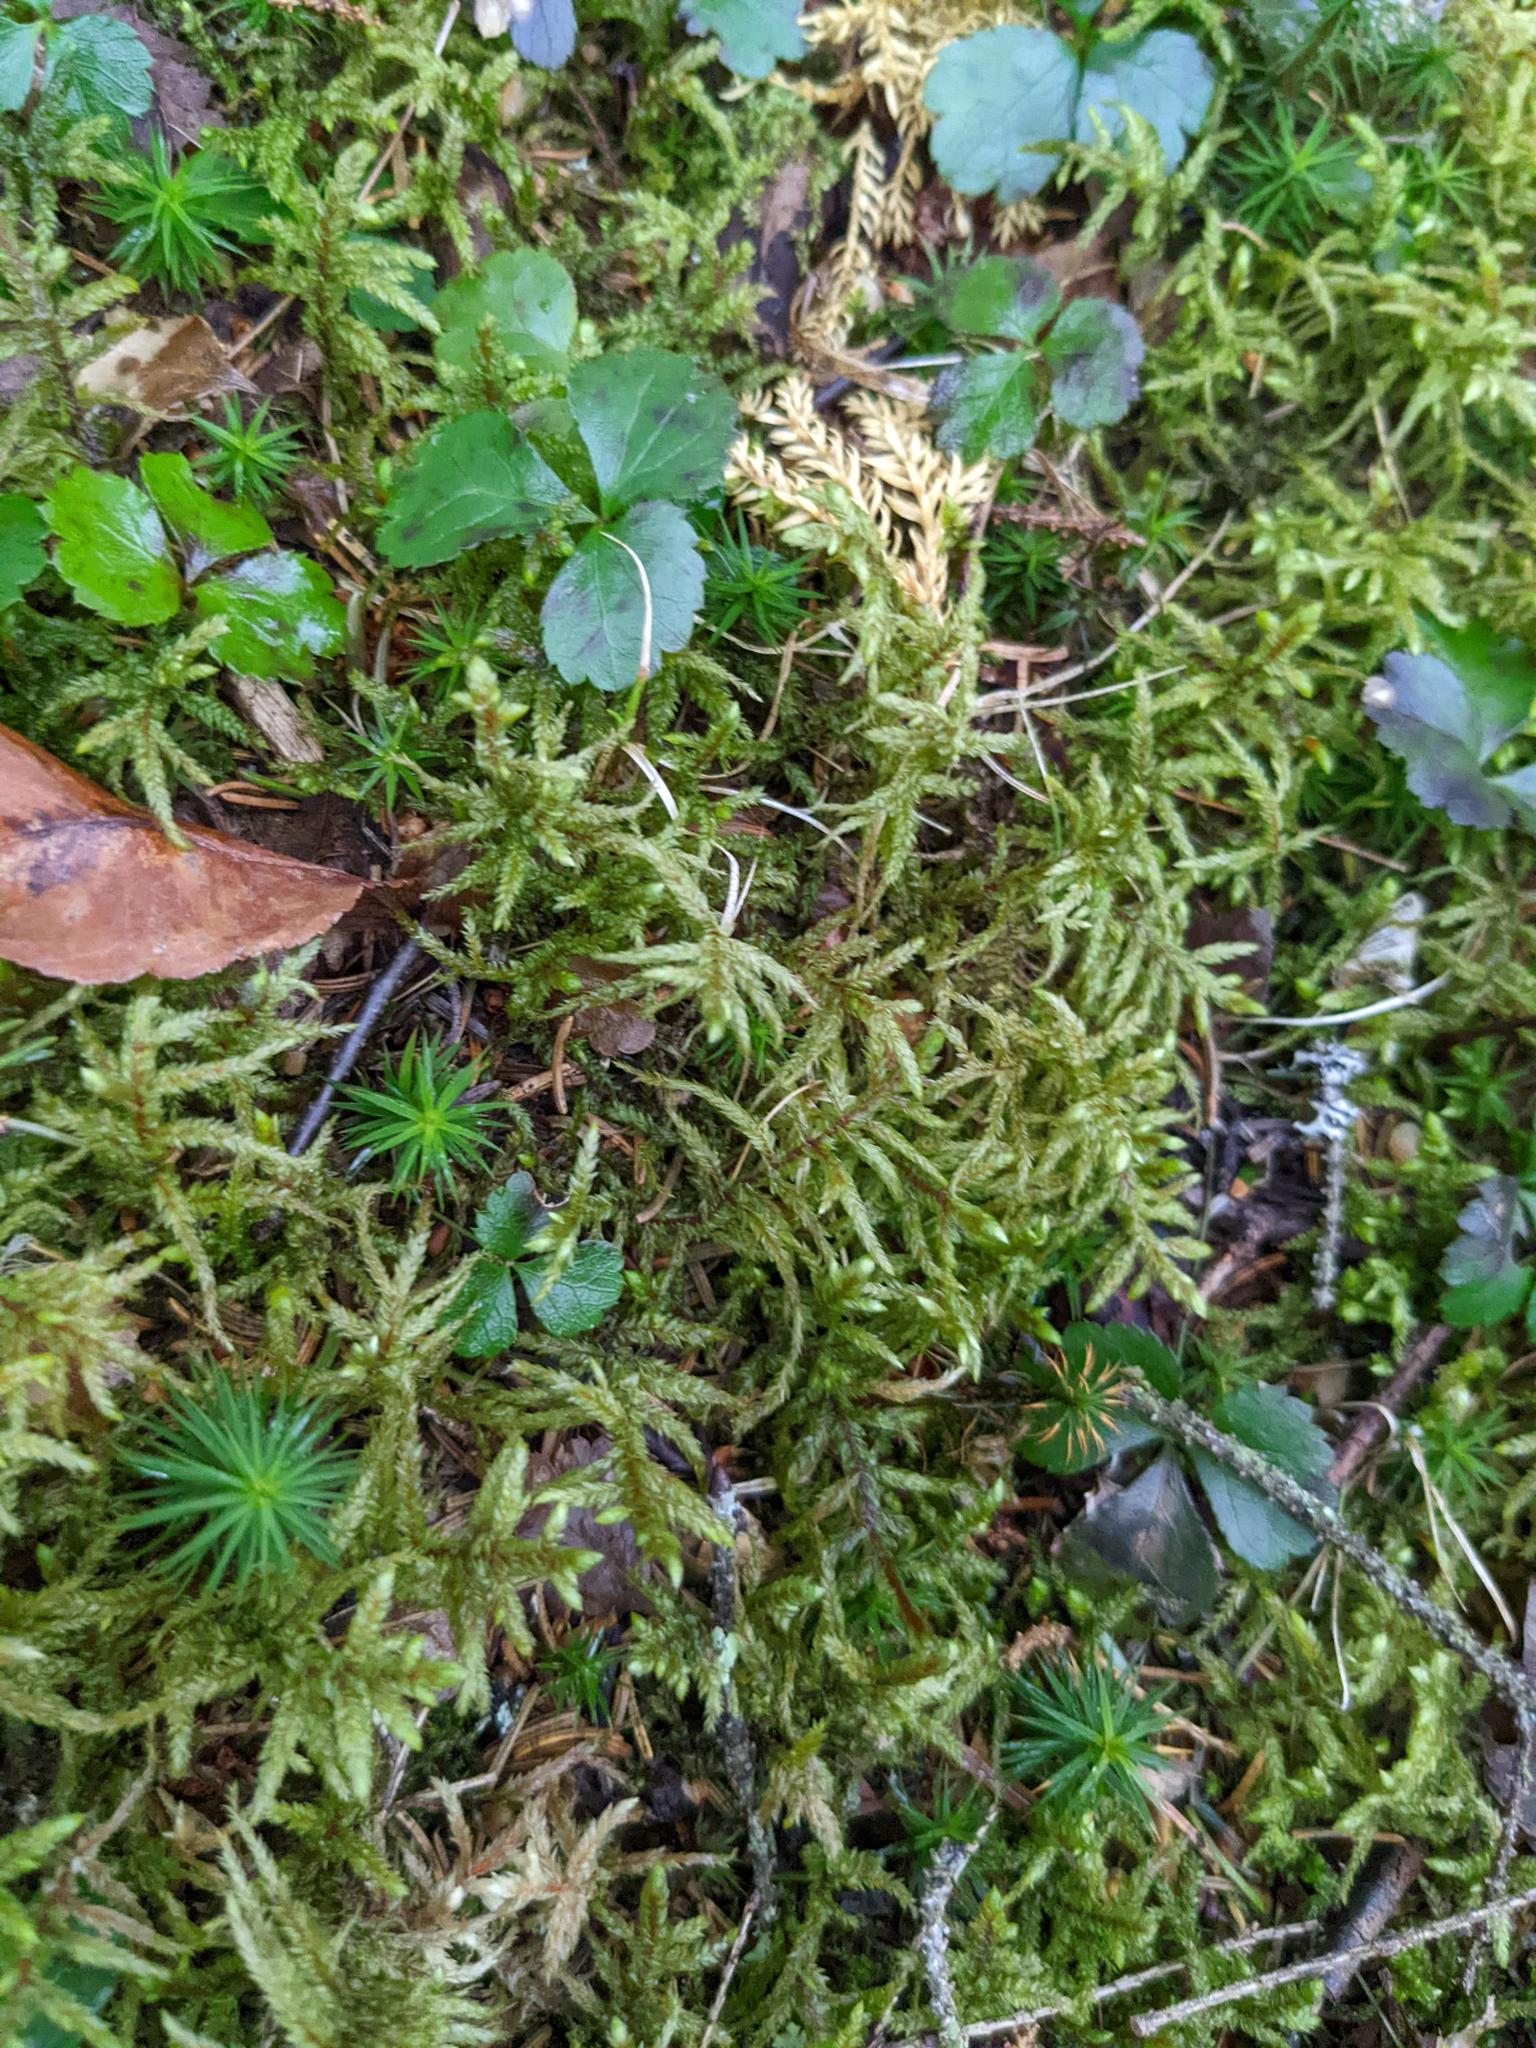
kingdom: Plantae
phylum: Tracheophyta
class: Magnoliopsida
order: Ranunculales
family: Ranunculaceae
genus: Coptis
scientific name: Coptis trifolia
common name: Canker-root
